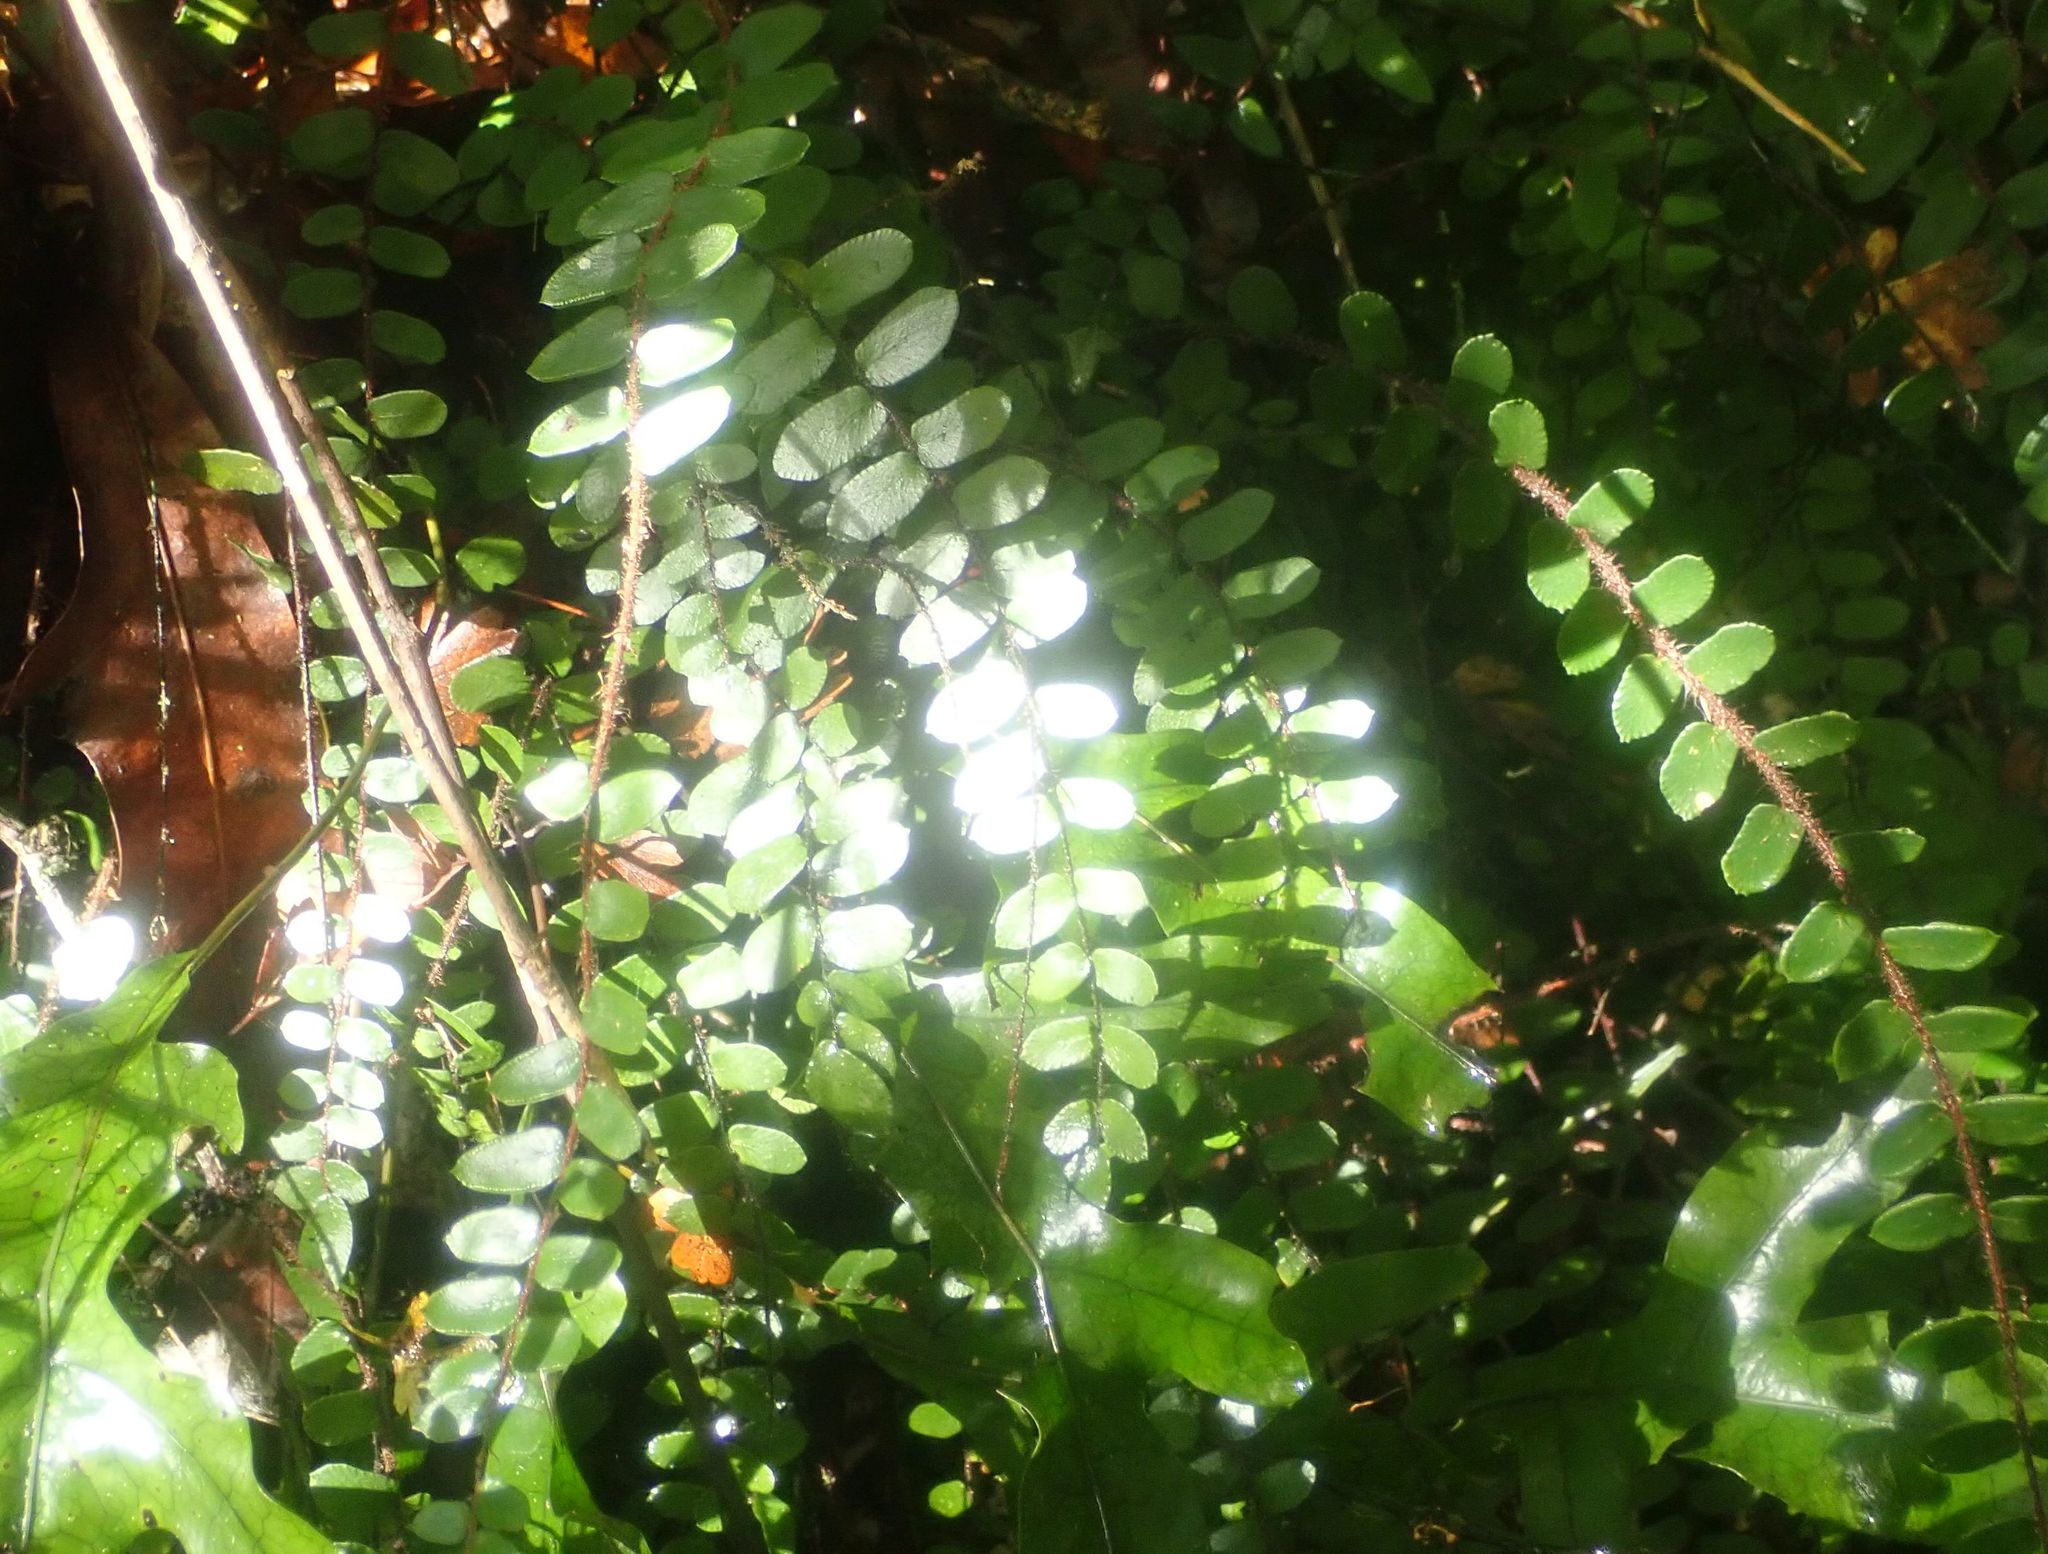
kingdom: Plantae
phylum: Tracheophyta
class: Polypodiopsida
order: Polypodiales
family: Pteridaceae
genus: Pellaea
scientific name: Pellaea rotundifolia
